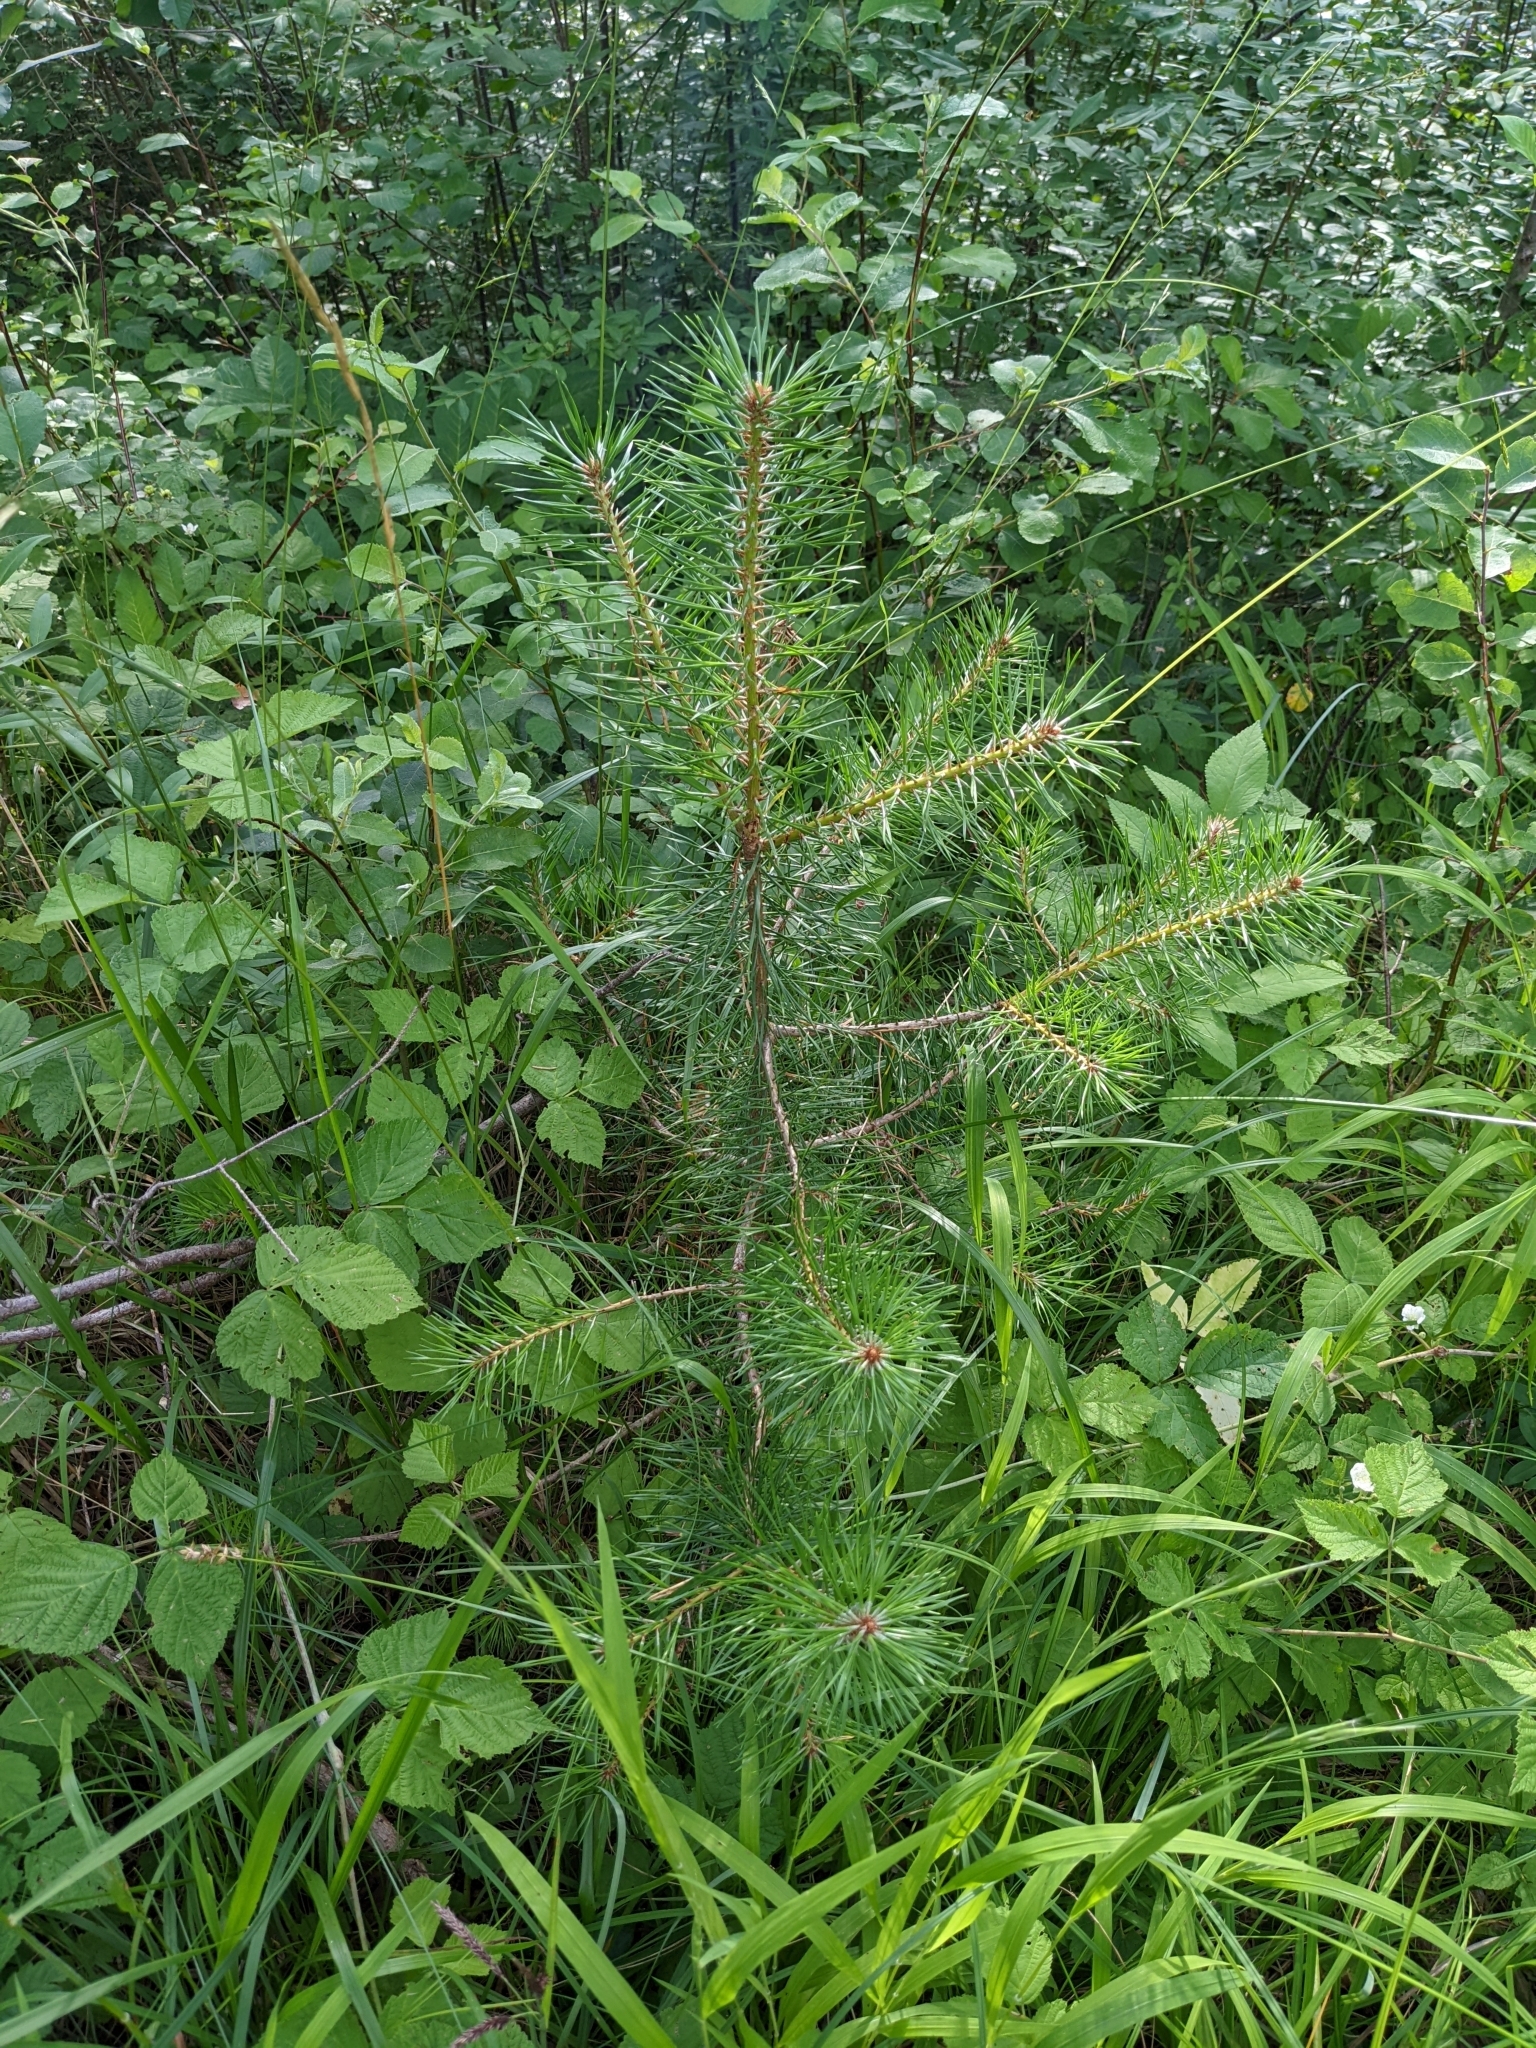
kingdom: Plantae
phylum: Tracheophyta
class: Pinopsida
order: Pinales
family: Pinaceae
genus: Pinus
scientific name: Pinus sylvestris
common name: Scots pine
